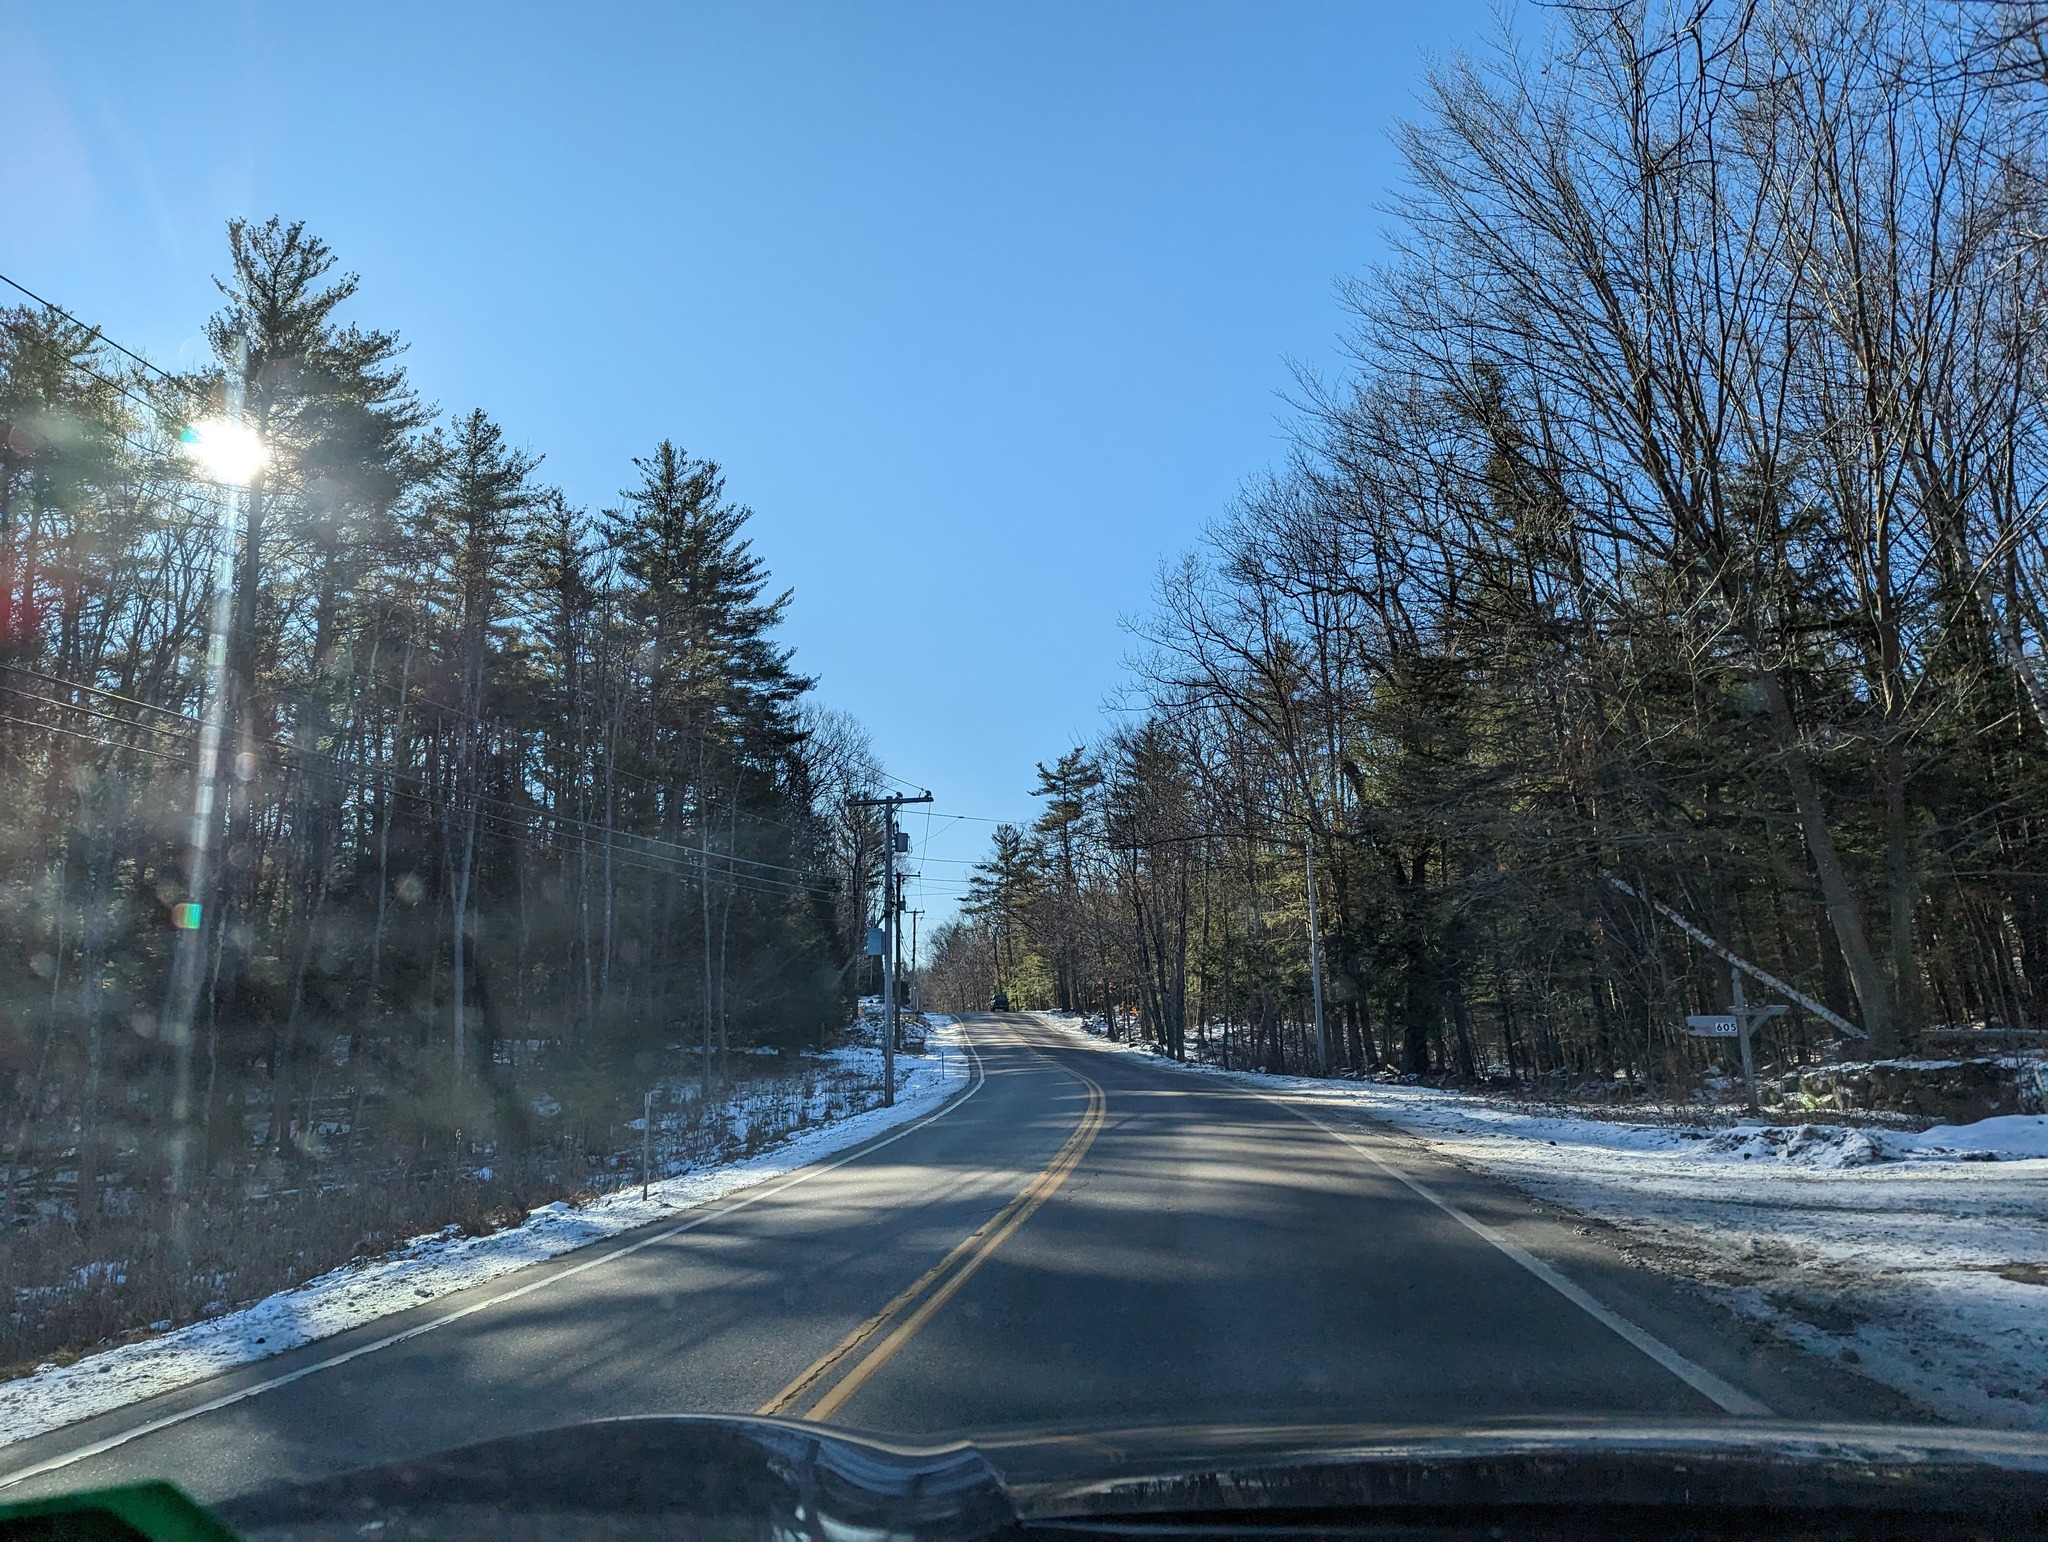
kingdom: Plantae
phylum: Tracheophyta
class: Pinopsida
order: Pinales
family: Pinaceae
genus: Pinus
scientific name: Pinus strobus
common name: Weymouth pine
